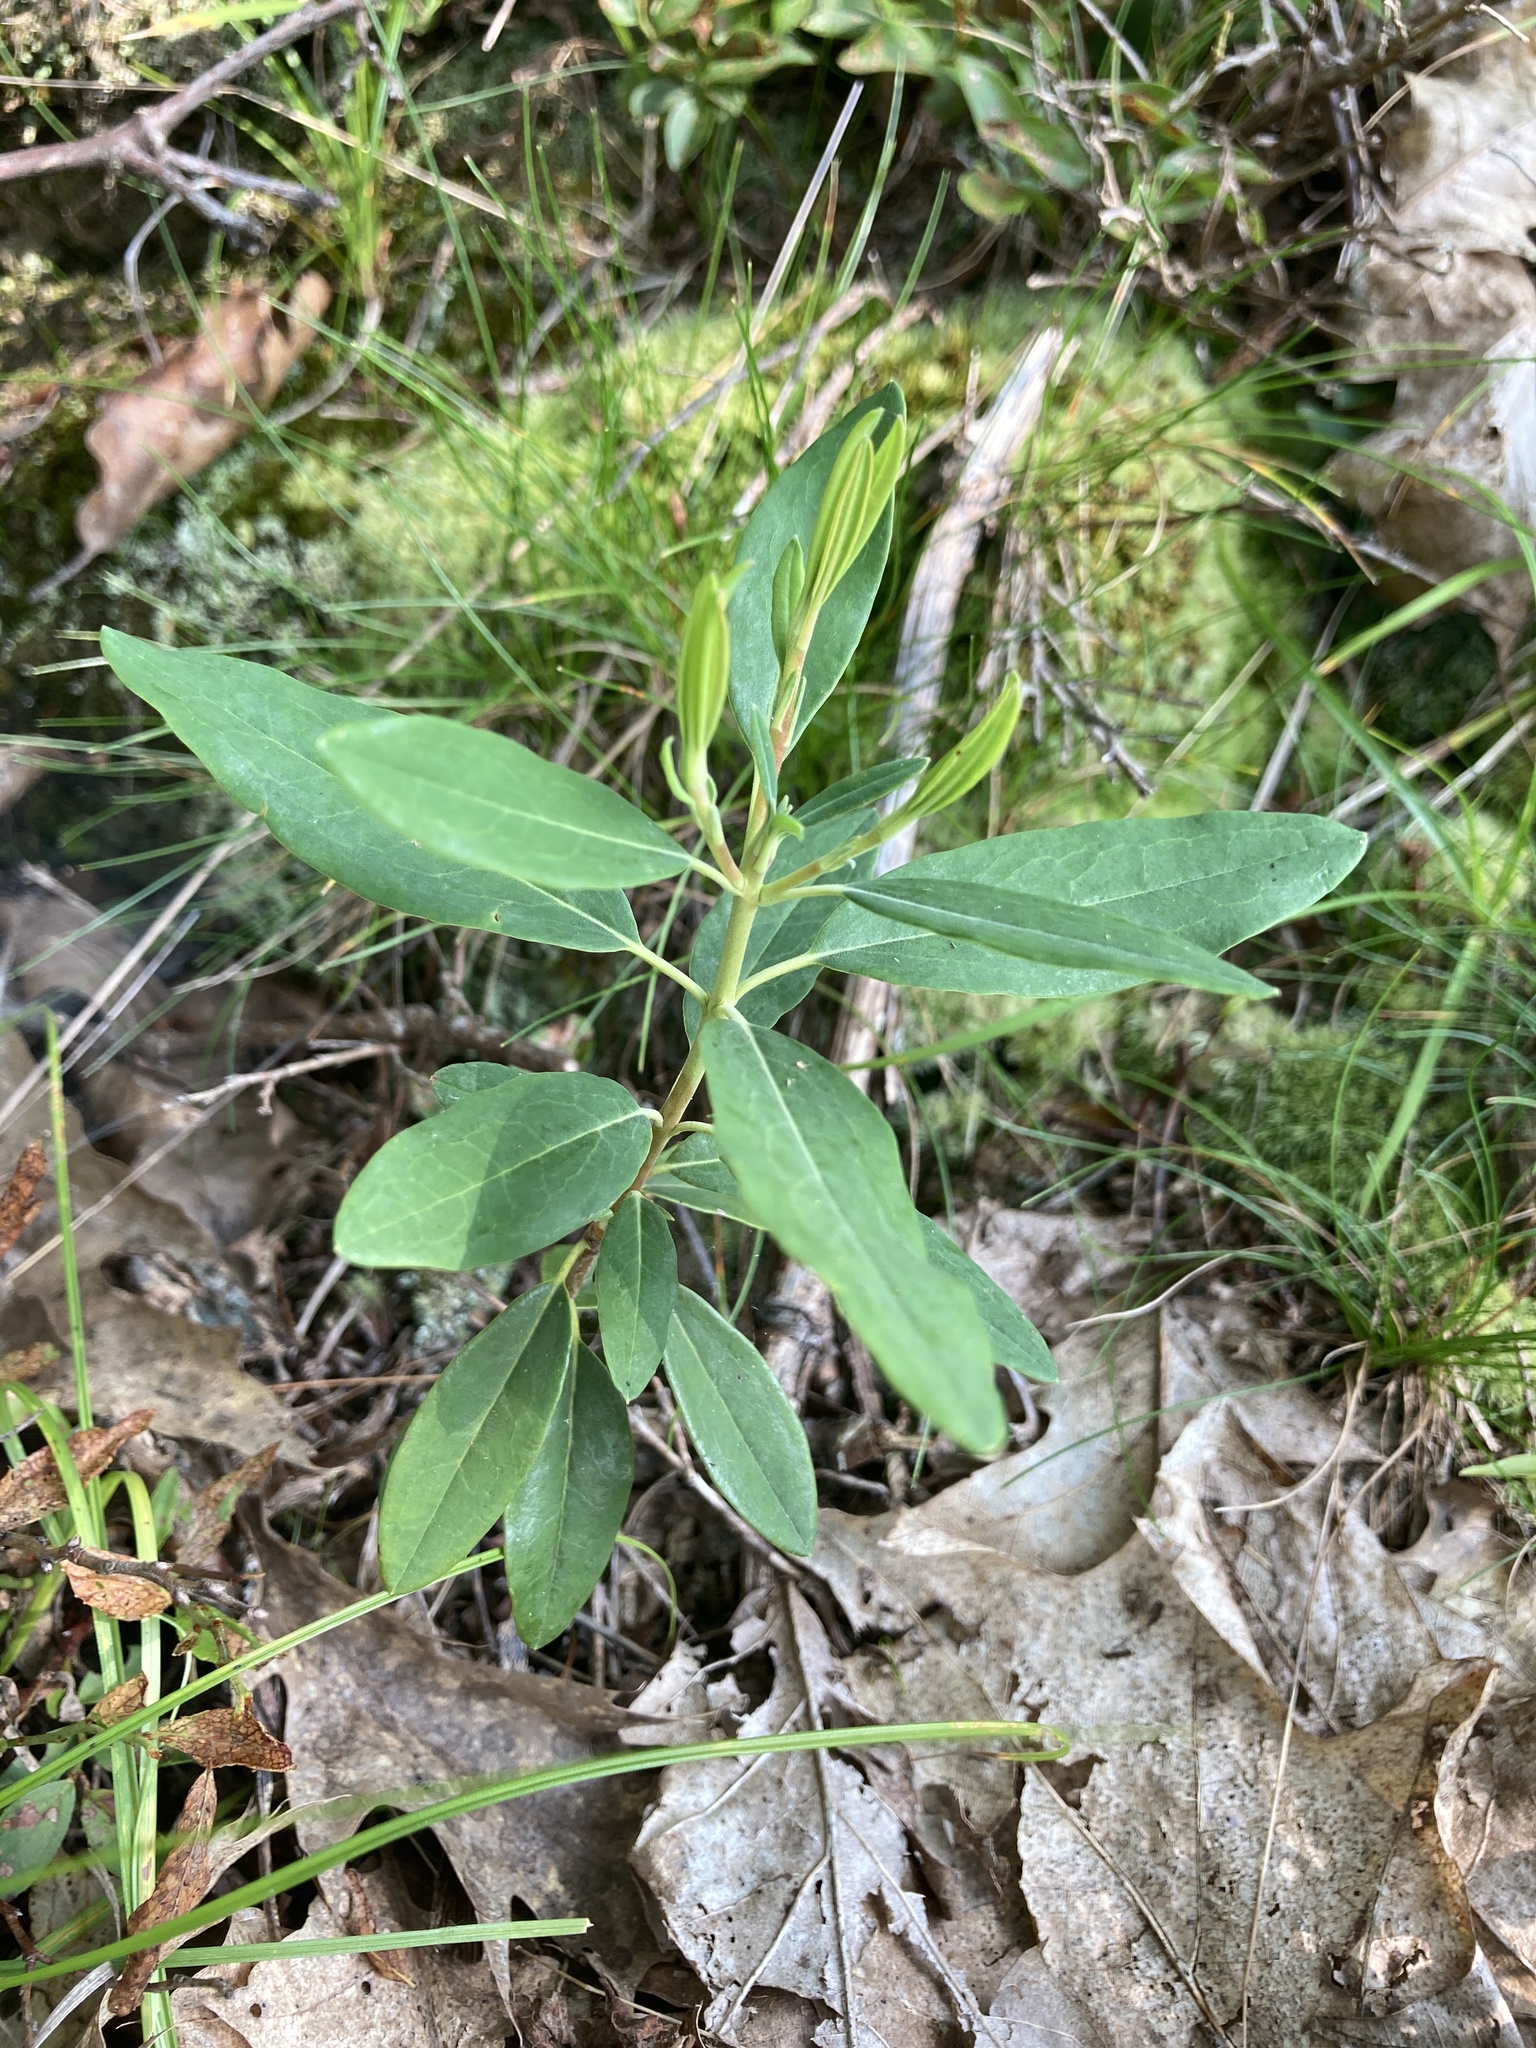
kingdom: Plantae
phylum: Tracheophyta
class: Magnoliopsida
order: Ericales
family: Ericaceae
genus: Kalmia
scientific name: Kalmia angustifolia
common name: Sheep-laurel
